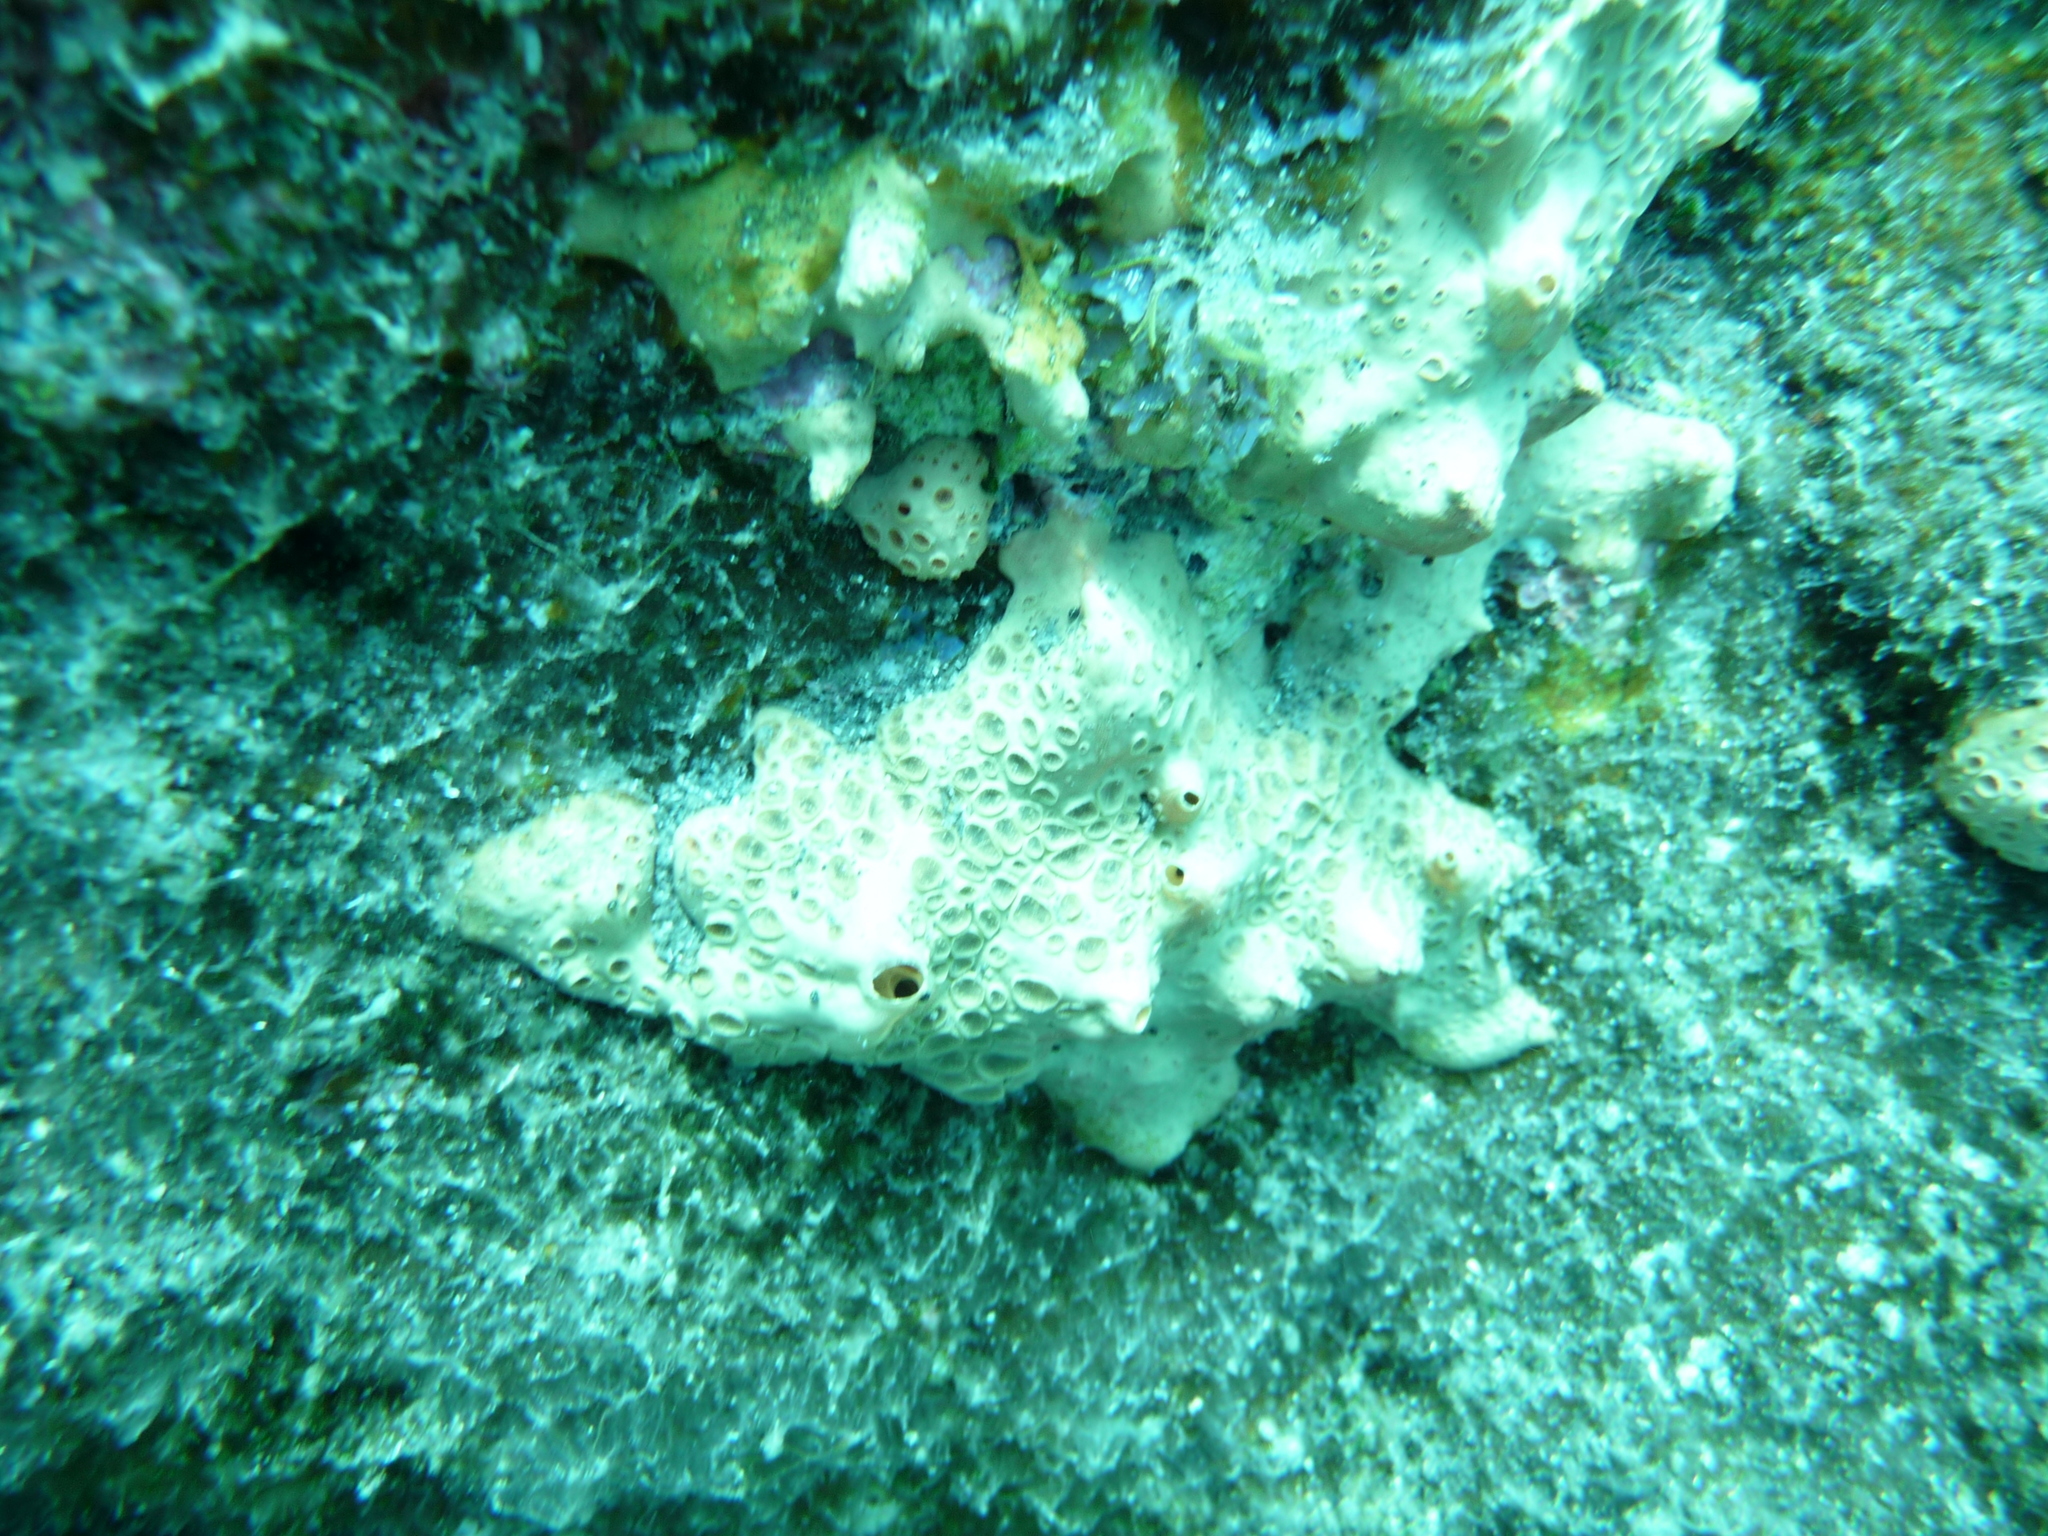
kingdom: Animalia
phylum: Porifera
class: Demospongiae
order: Poecilosclerida
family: Hymedesmiidae
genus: Hemimycale
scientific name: Hemimycale columella
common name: Crater sponge
